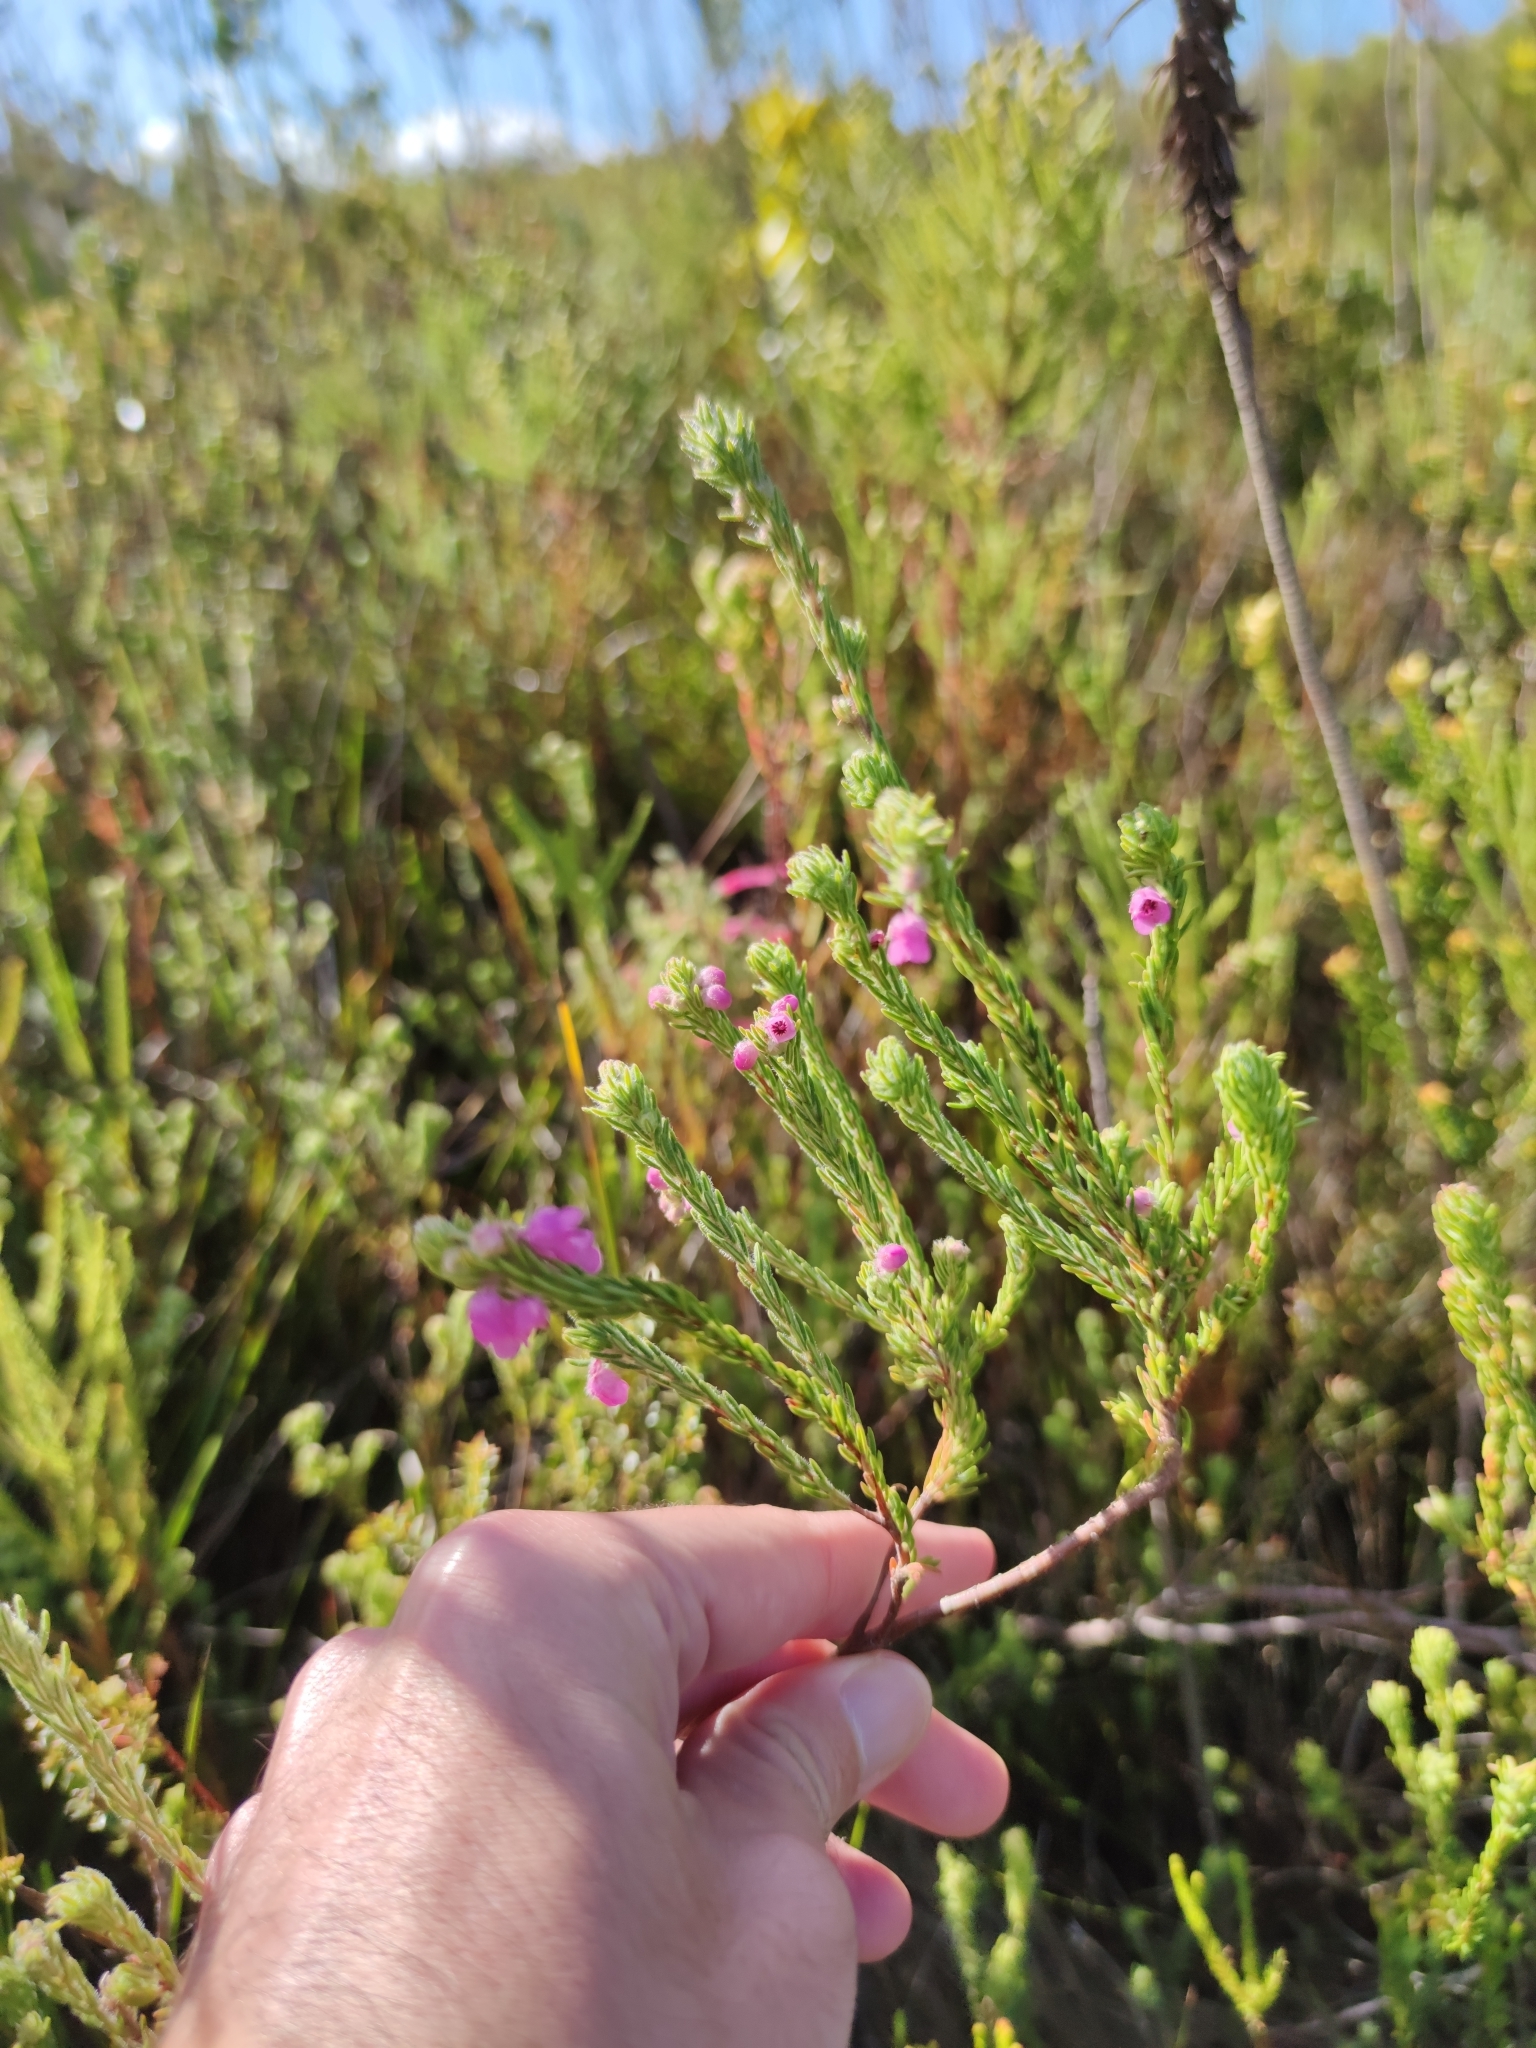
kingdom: Plantae
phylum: Tracheophyta
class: Magnoliopsida
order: Ericales
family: Ericaceae
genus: Erica
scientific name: Erica amoena
